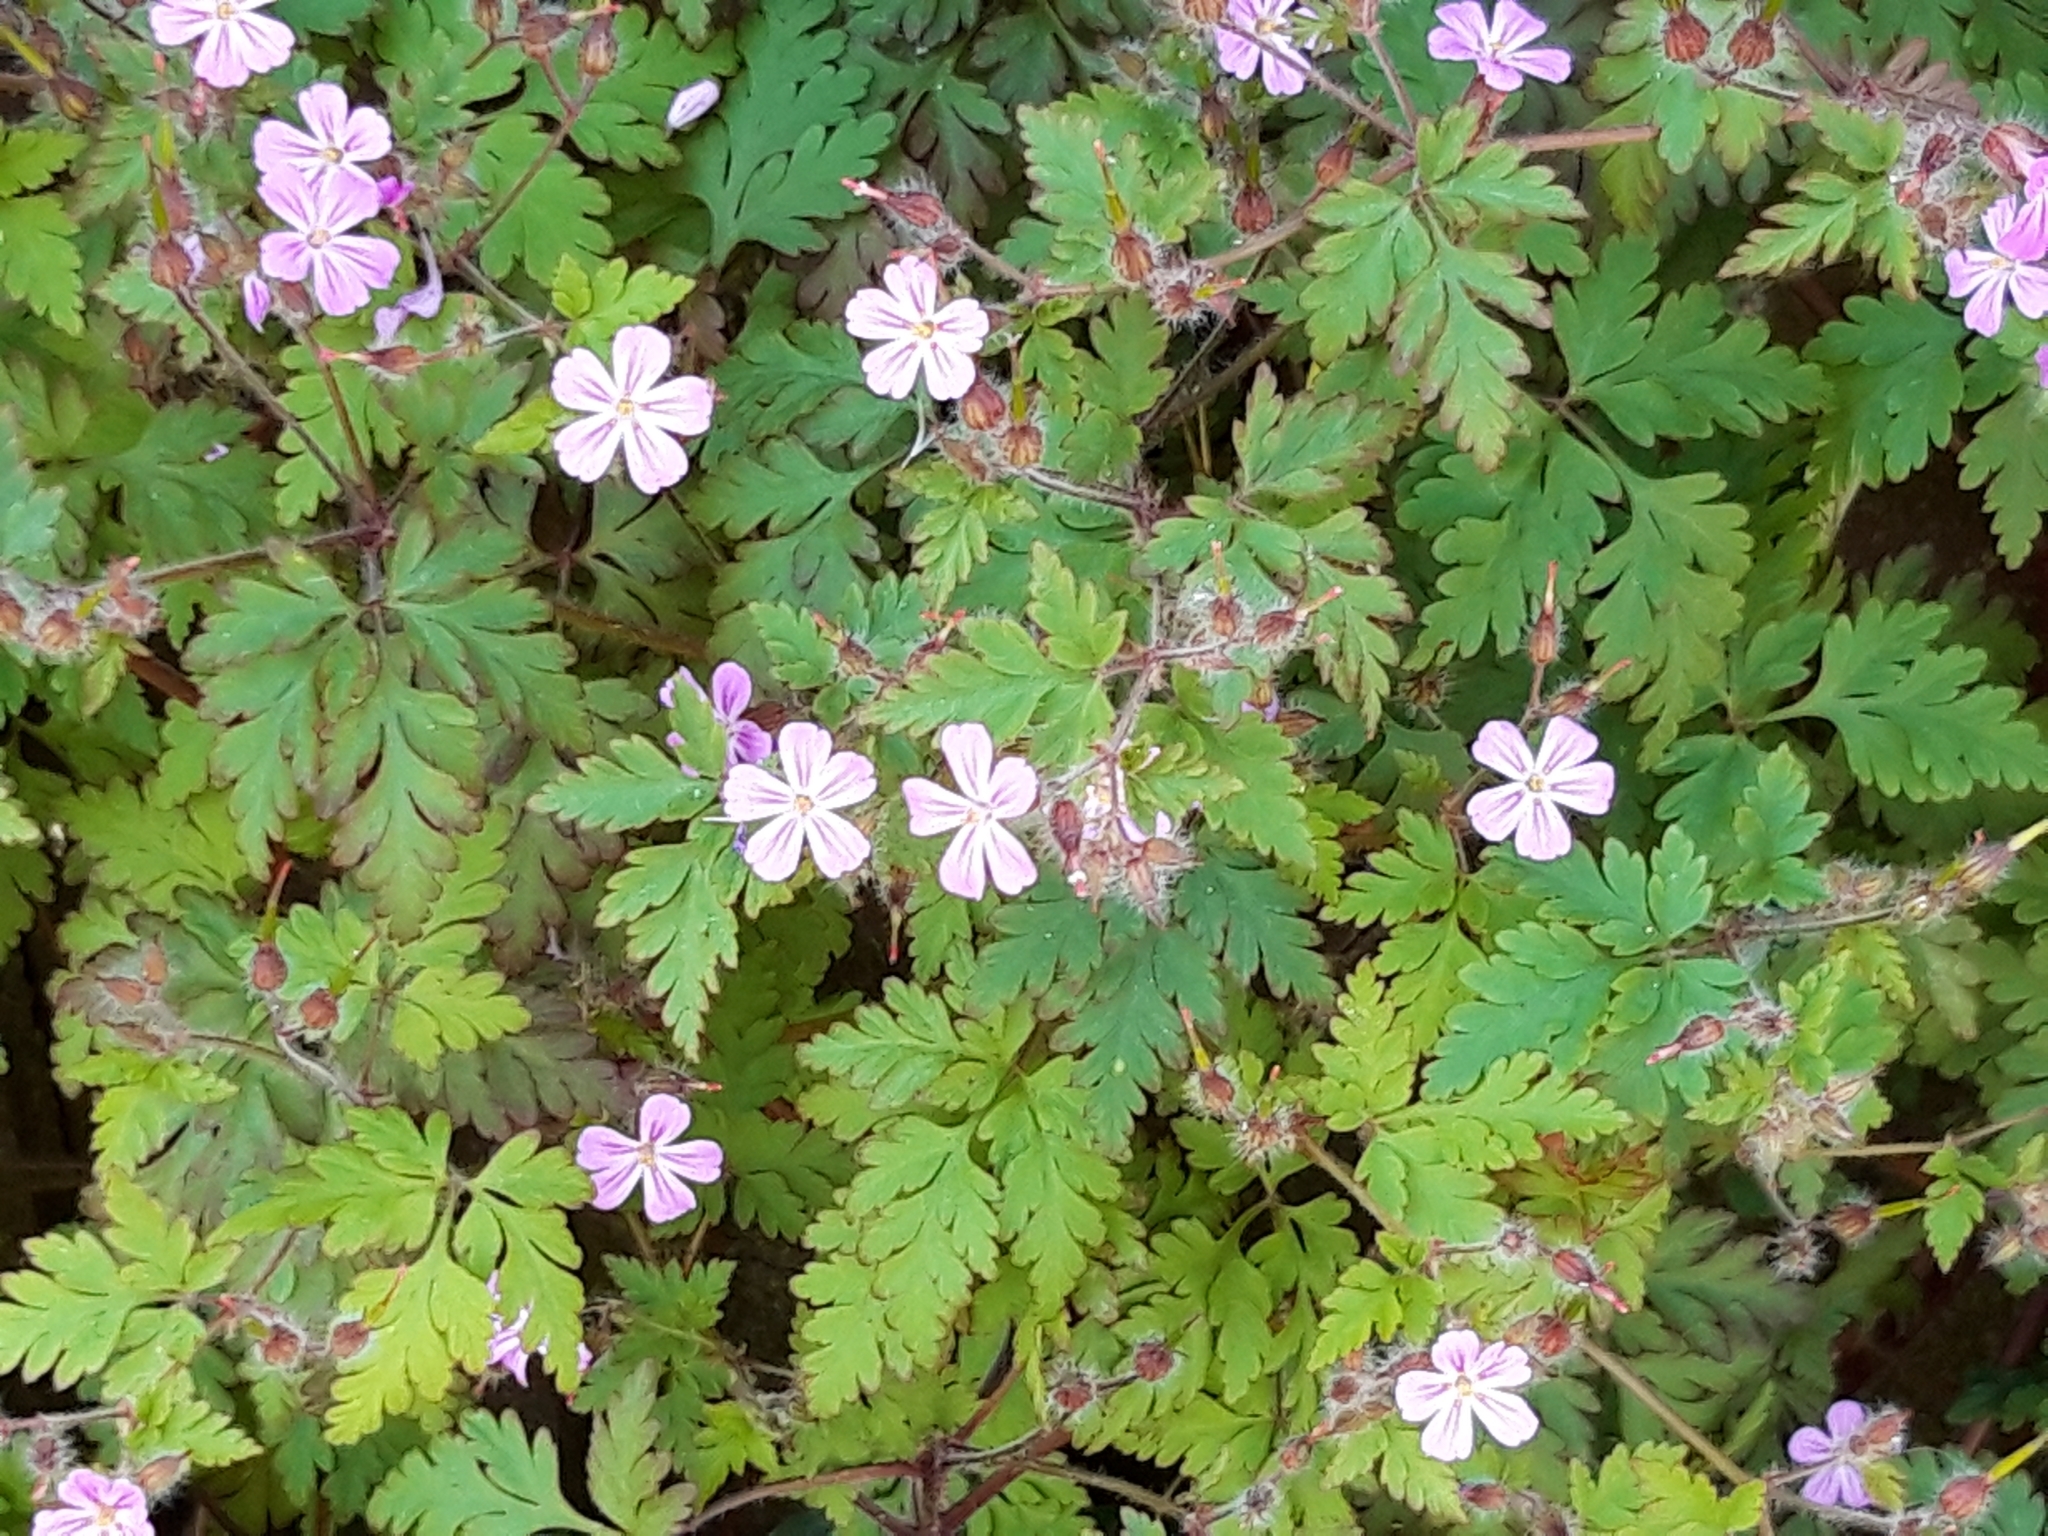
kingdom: Plantae
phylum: Tracheophyta
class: Magnoliopsida
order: Geraniales
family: Geraniaceae
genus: Geranium
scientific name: Geranium robertianum
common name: Herb-robert
